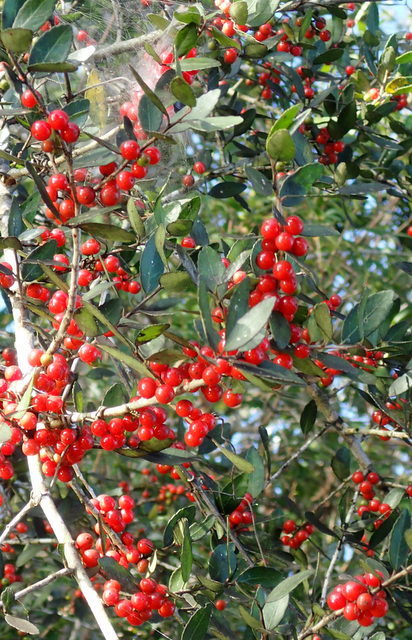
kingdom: Plantae
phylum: Tracheophyta
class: Magnoliopsida
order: Aquifoliales
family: Aquifoliaceae
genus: Ilex
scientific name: Ilex vomitoria
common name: Yaupon holly
